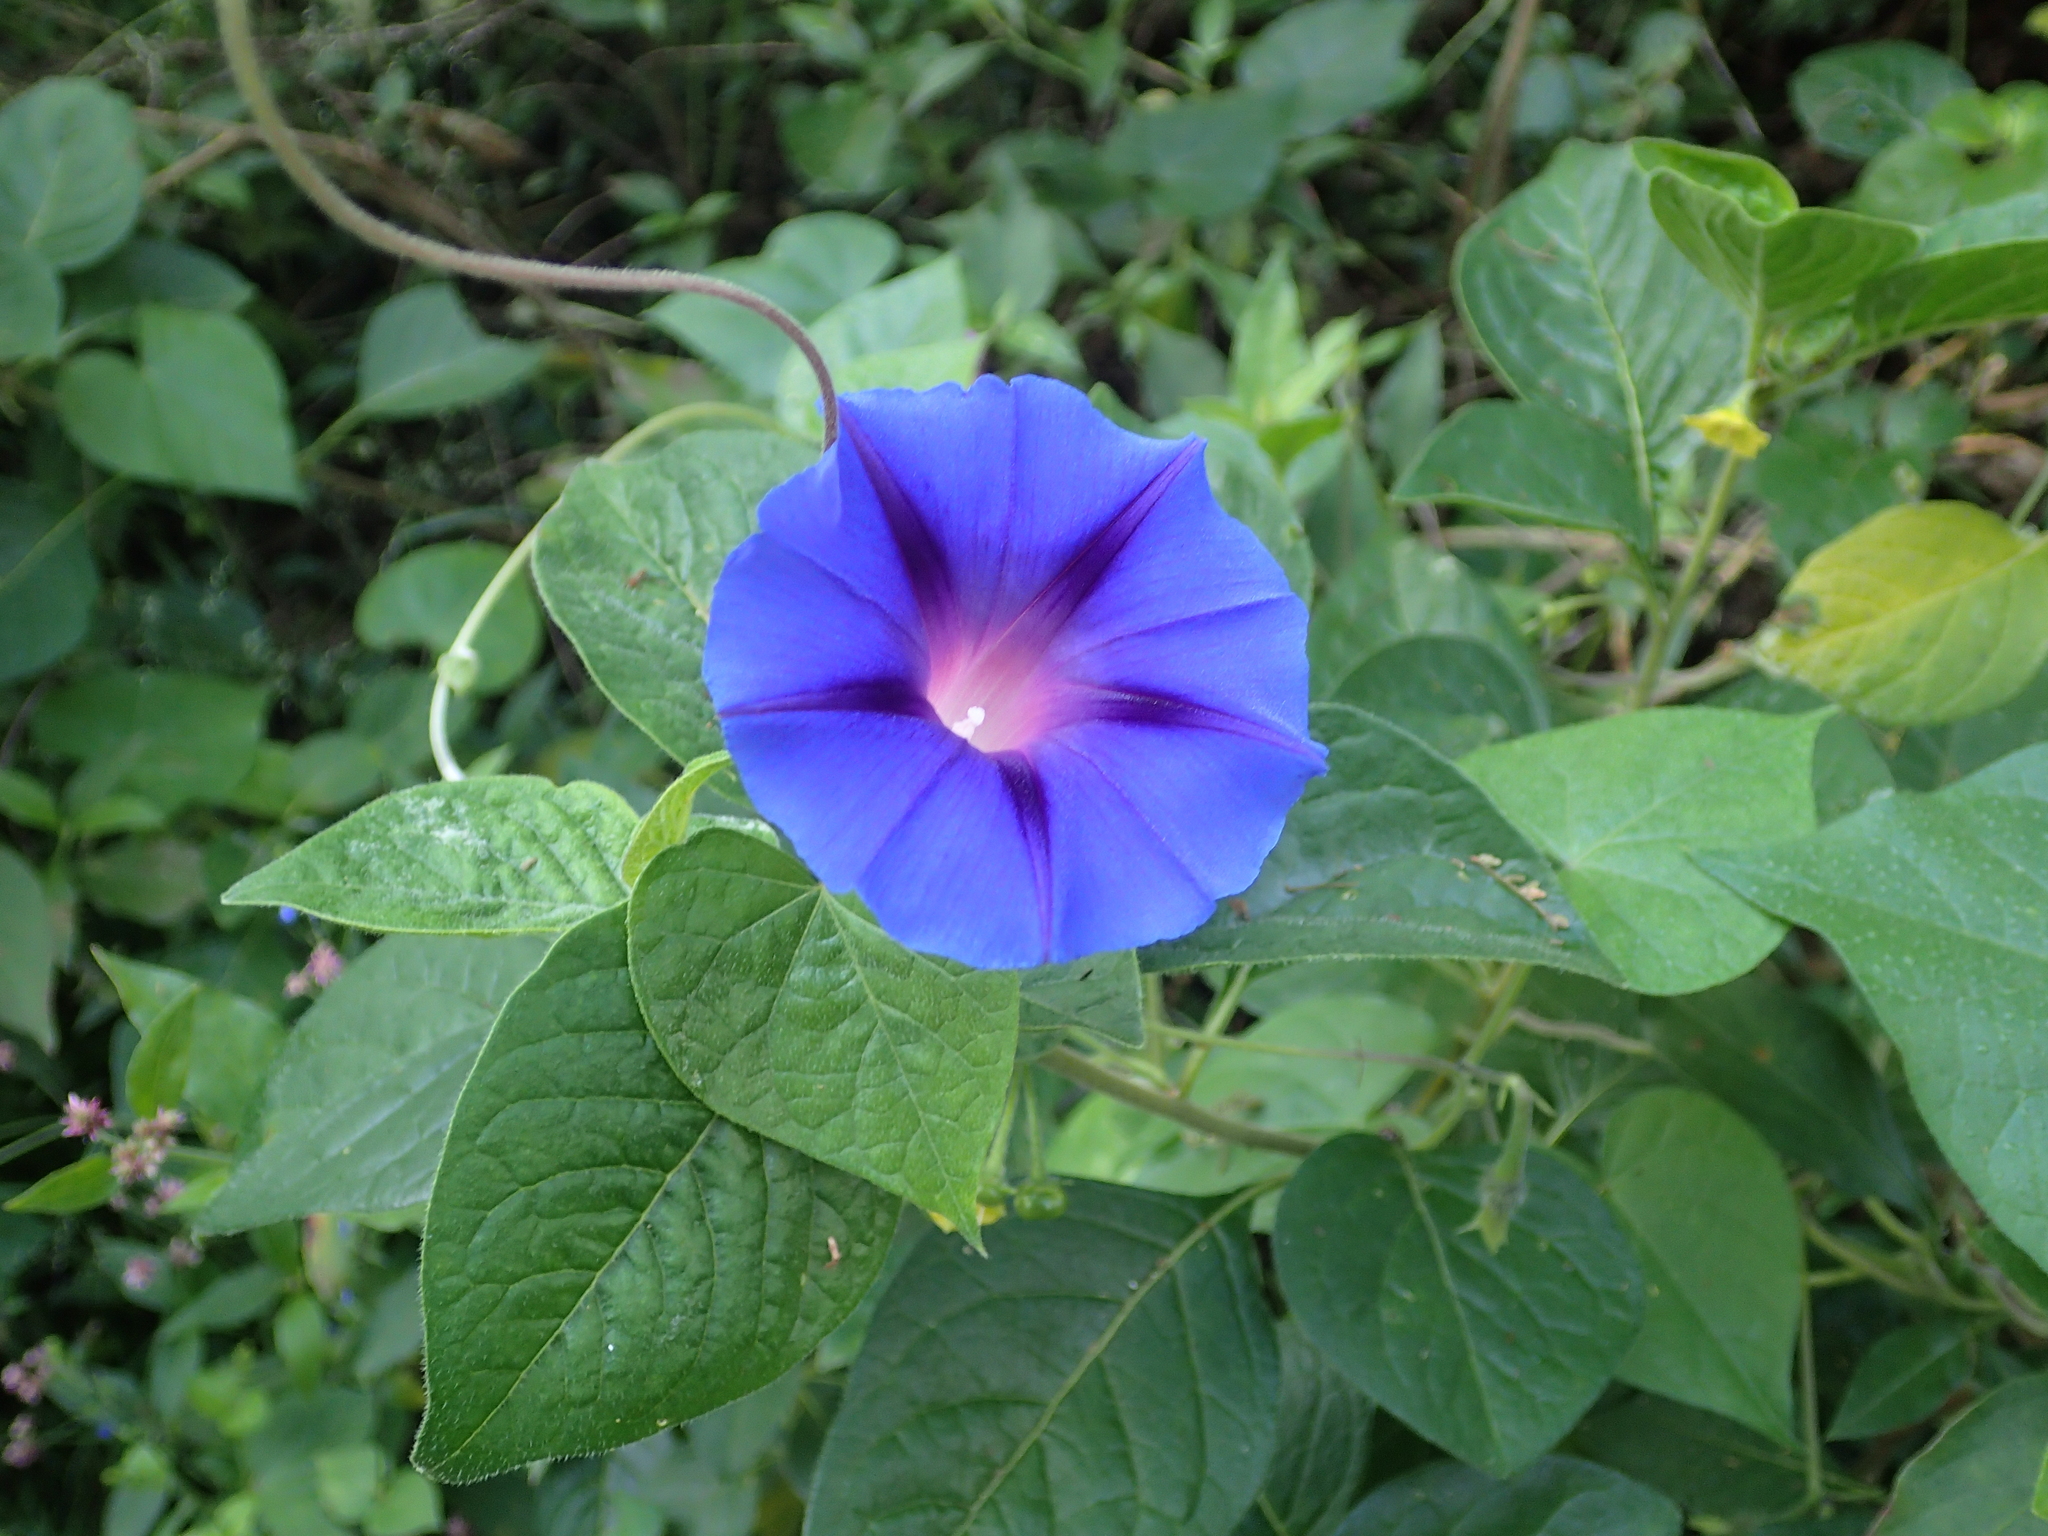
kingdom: Plantae
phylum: Tracheophyta
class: Magnoliopsida
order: Solanales
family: Convolvulaceae
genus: Ipomoea
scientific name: Ipomoea purpurea
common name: Common morning-glory
